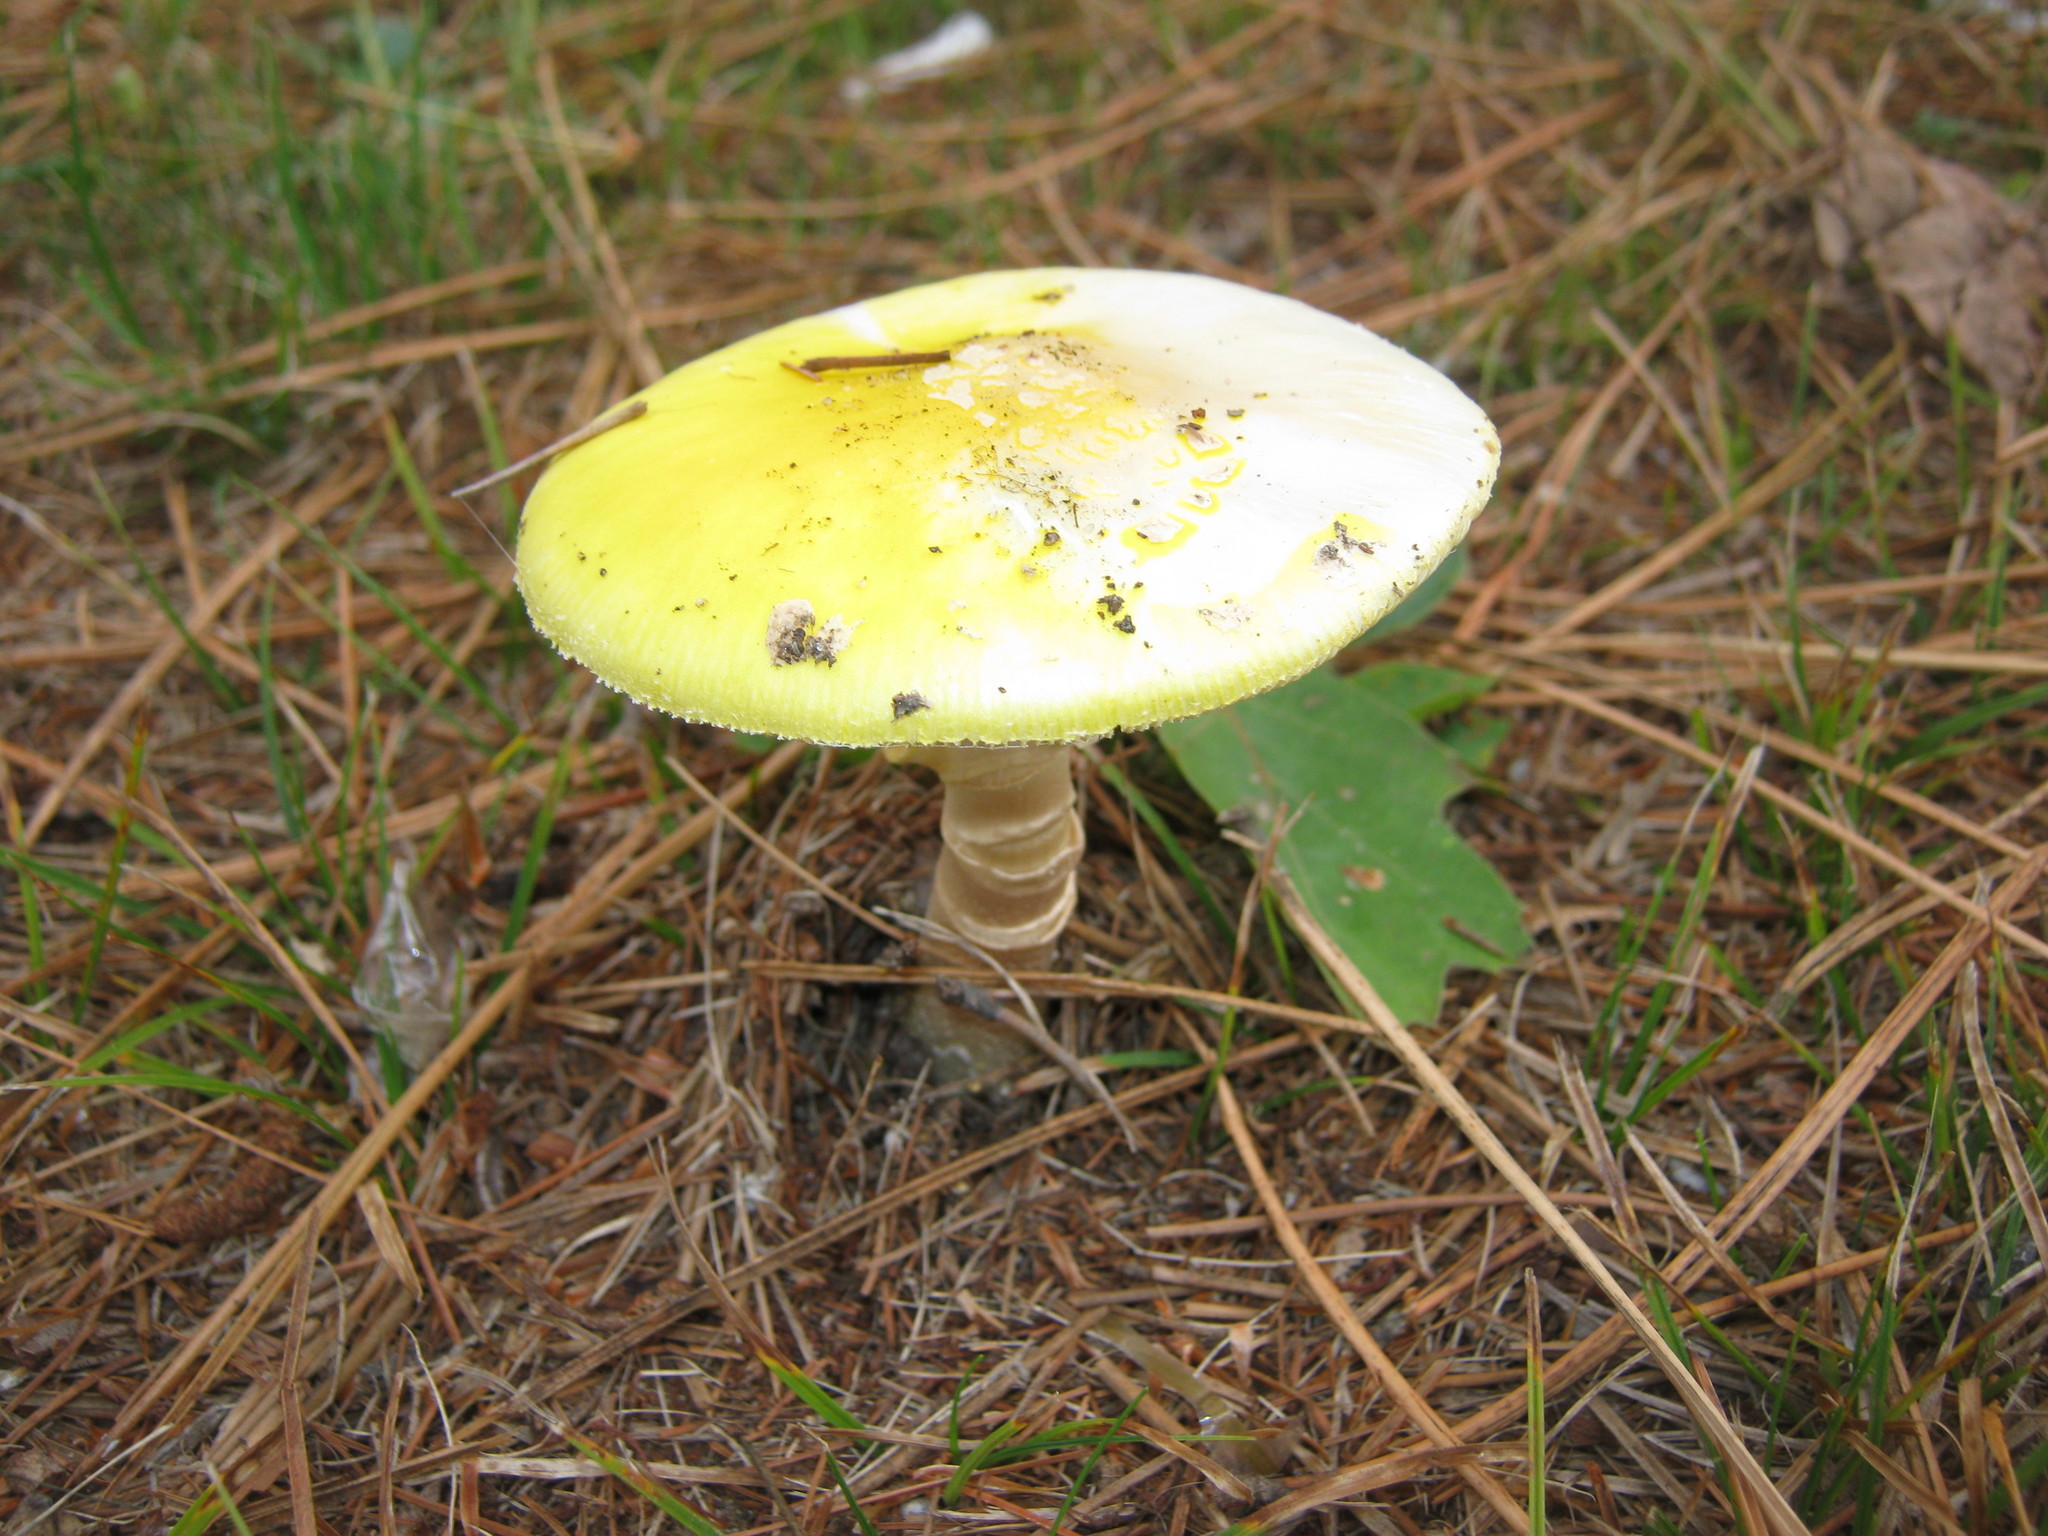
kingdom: Fungi
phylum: Basidiomycota
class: Agaricomycetes
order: Agaricales
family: Amanitaceae
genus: Amanita
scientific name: Amanita elongata
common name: Peck's yellow dust amanita
